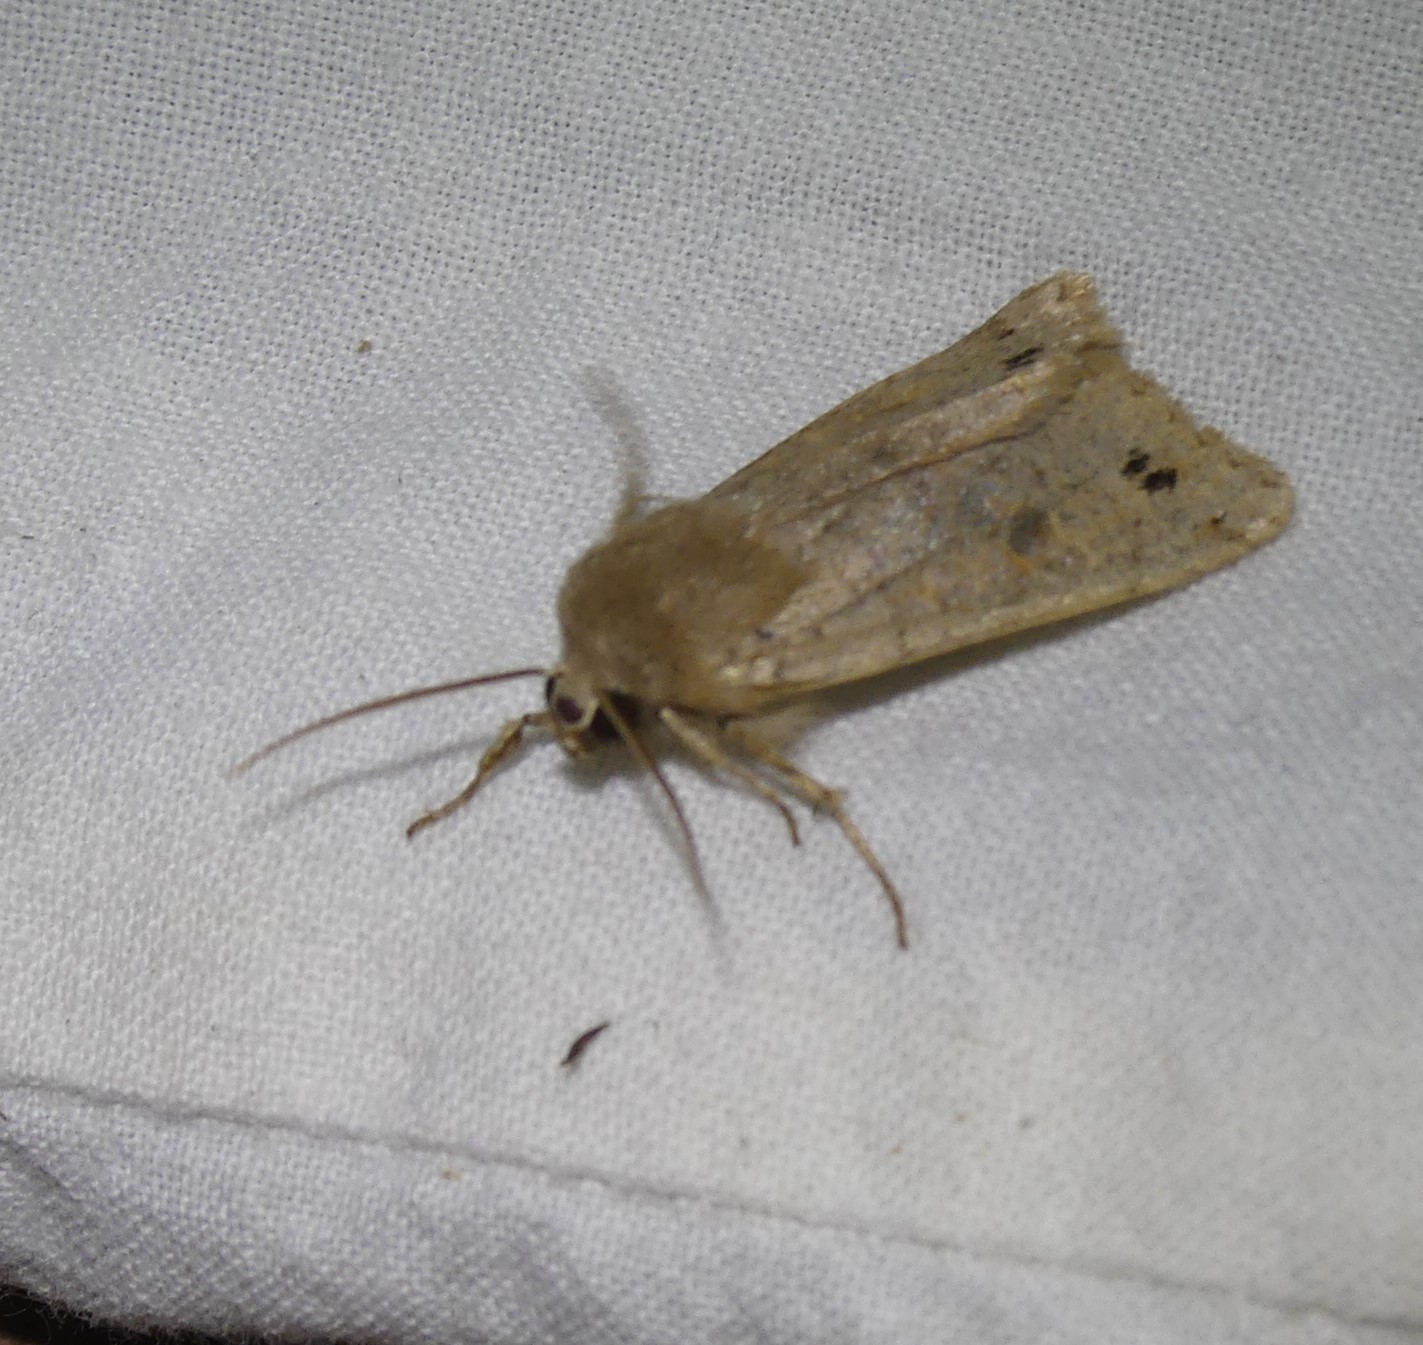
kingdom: Animalia
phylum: Arthropoda
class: Insecta
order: Lepidoptera
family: Noctuidae
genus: Anorthoa
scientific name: Anorthoa munda
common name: Twin-spotted quaker
